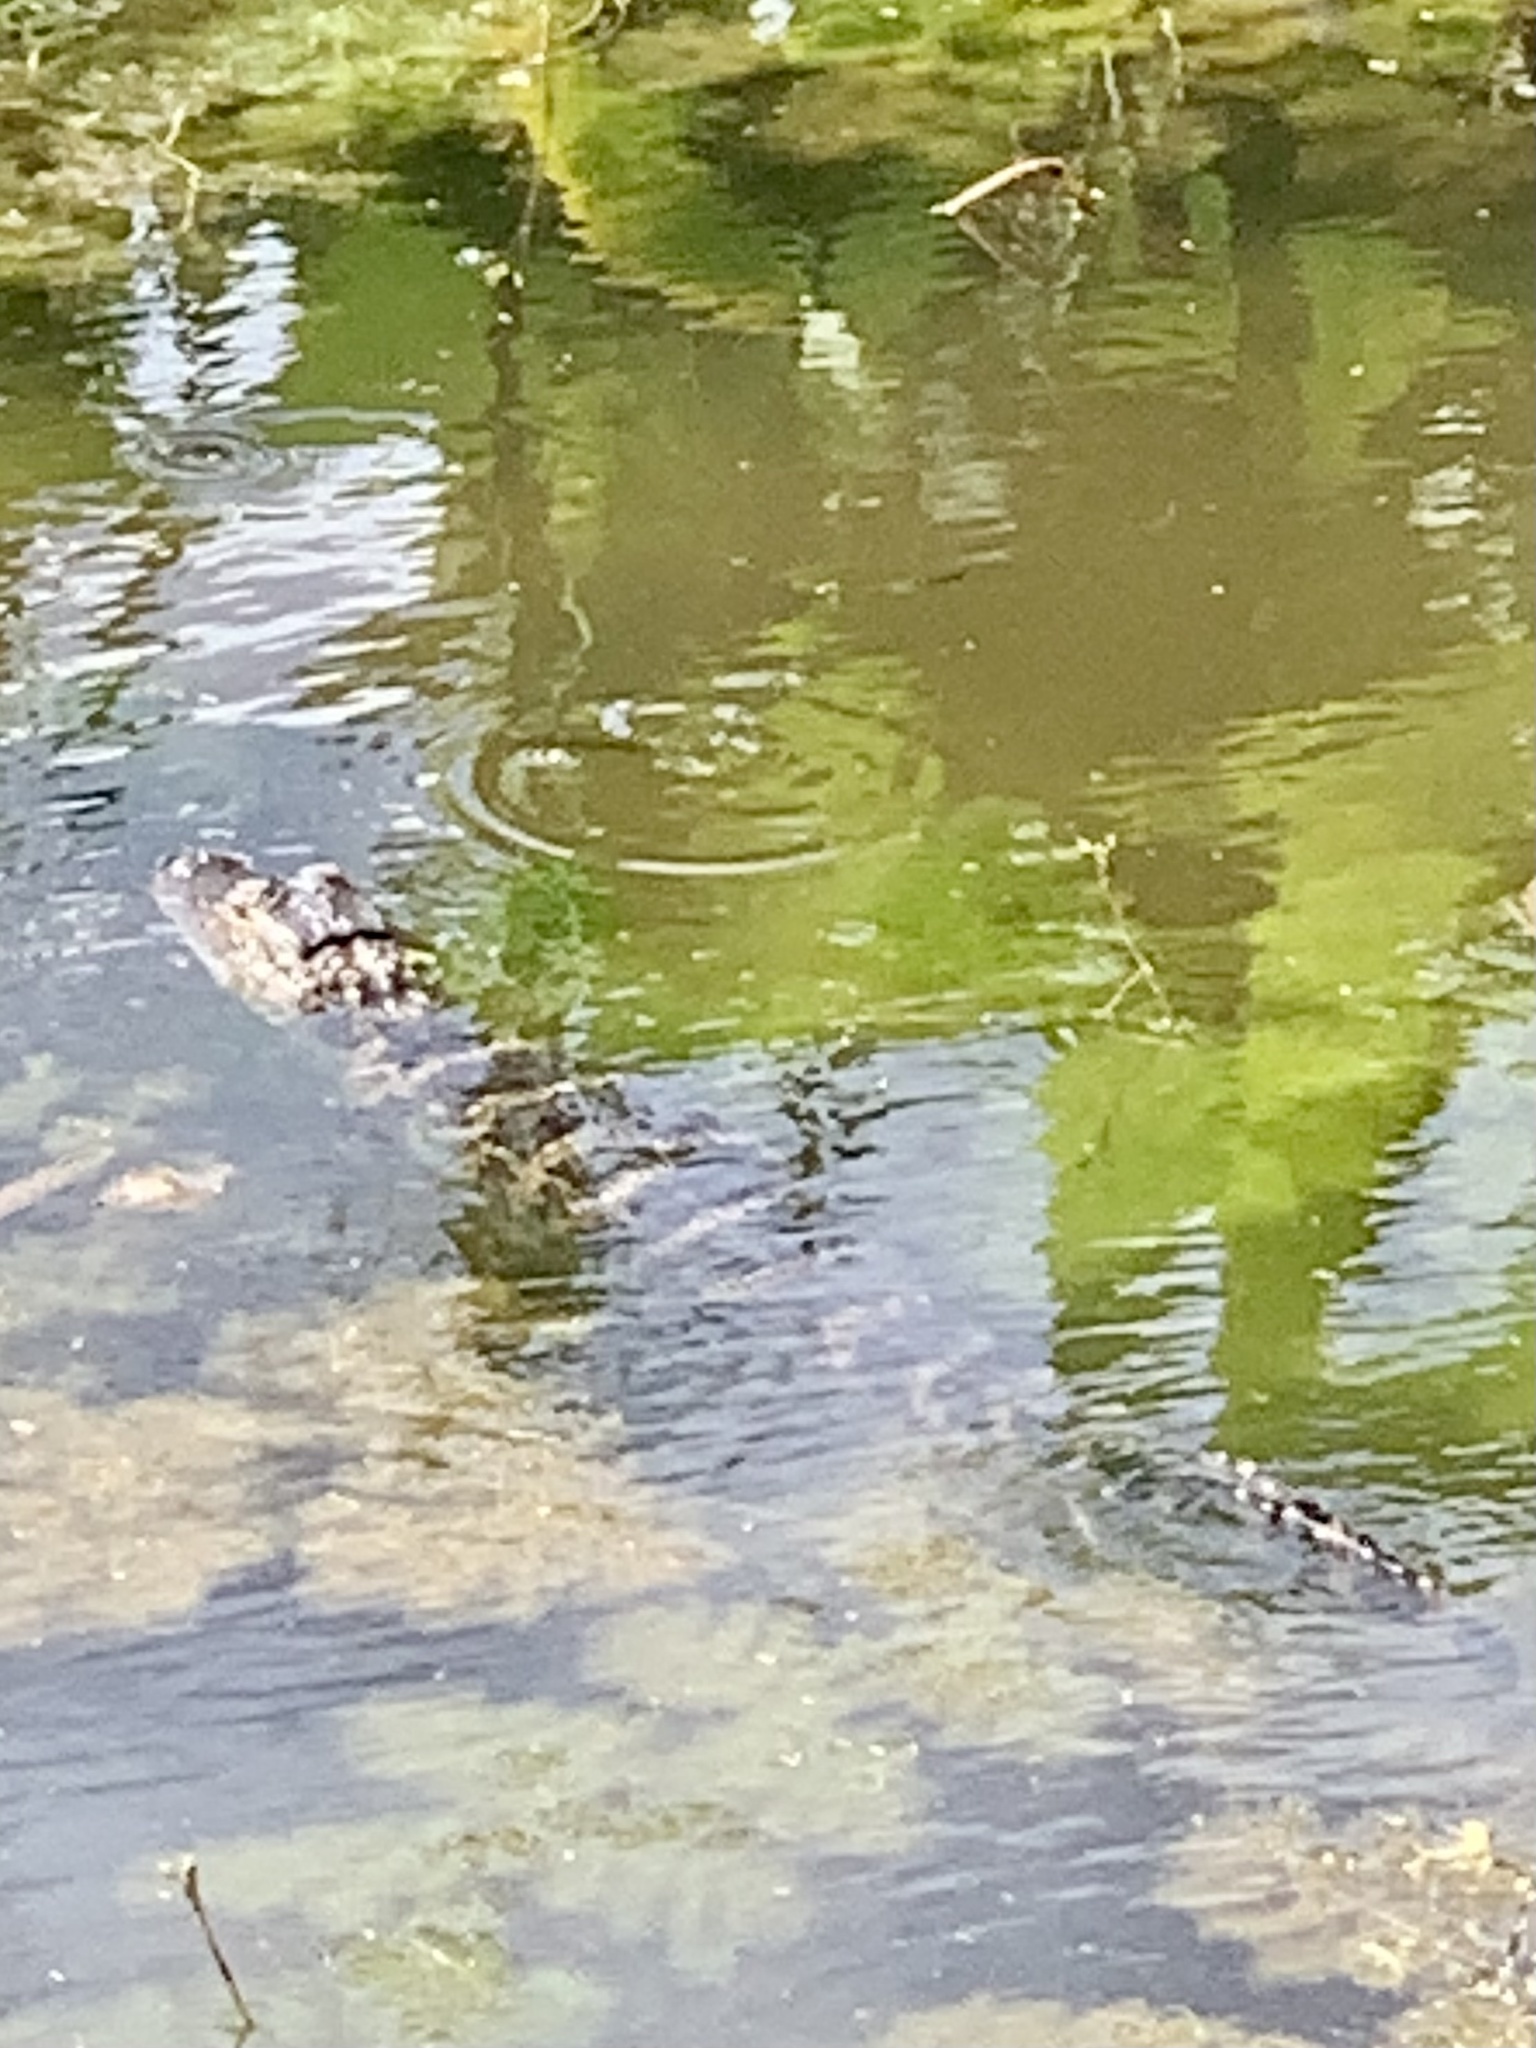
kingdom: Animalia
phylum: Chordata
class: Crocodylia
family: Alligatoridae
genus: Alligator
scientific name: Alligator mississippiensis
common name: American alligator
